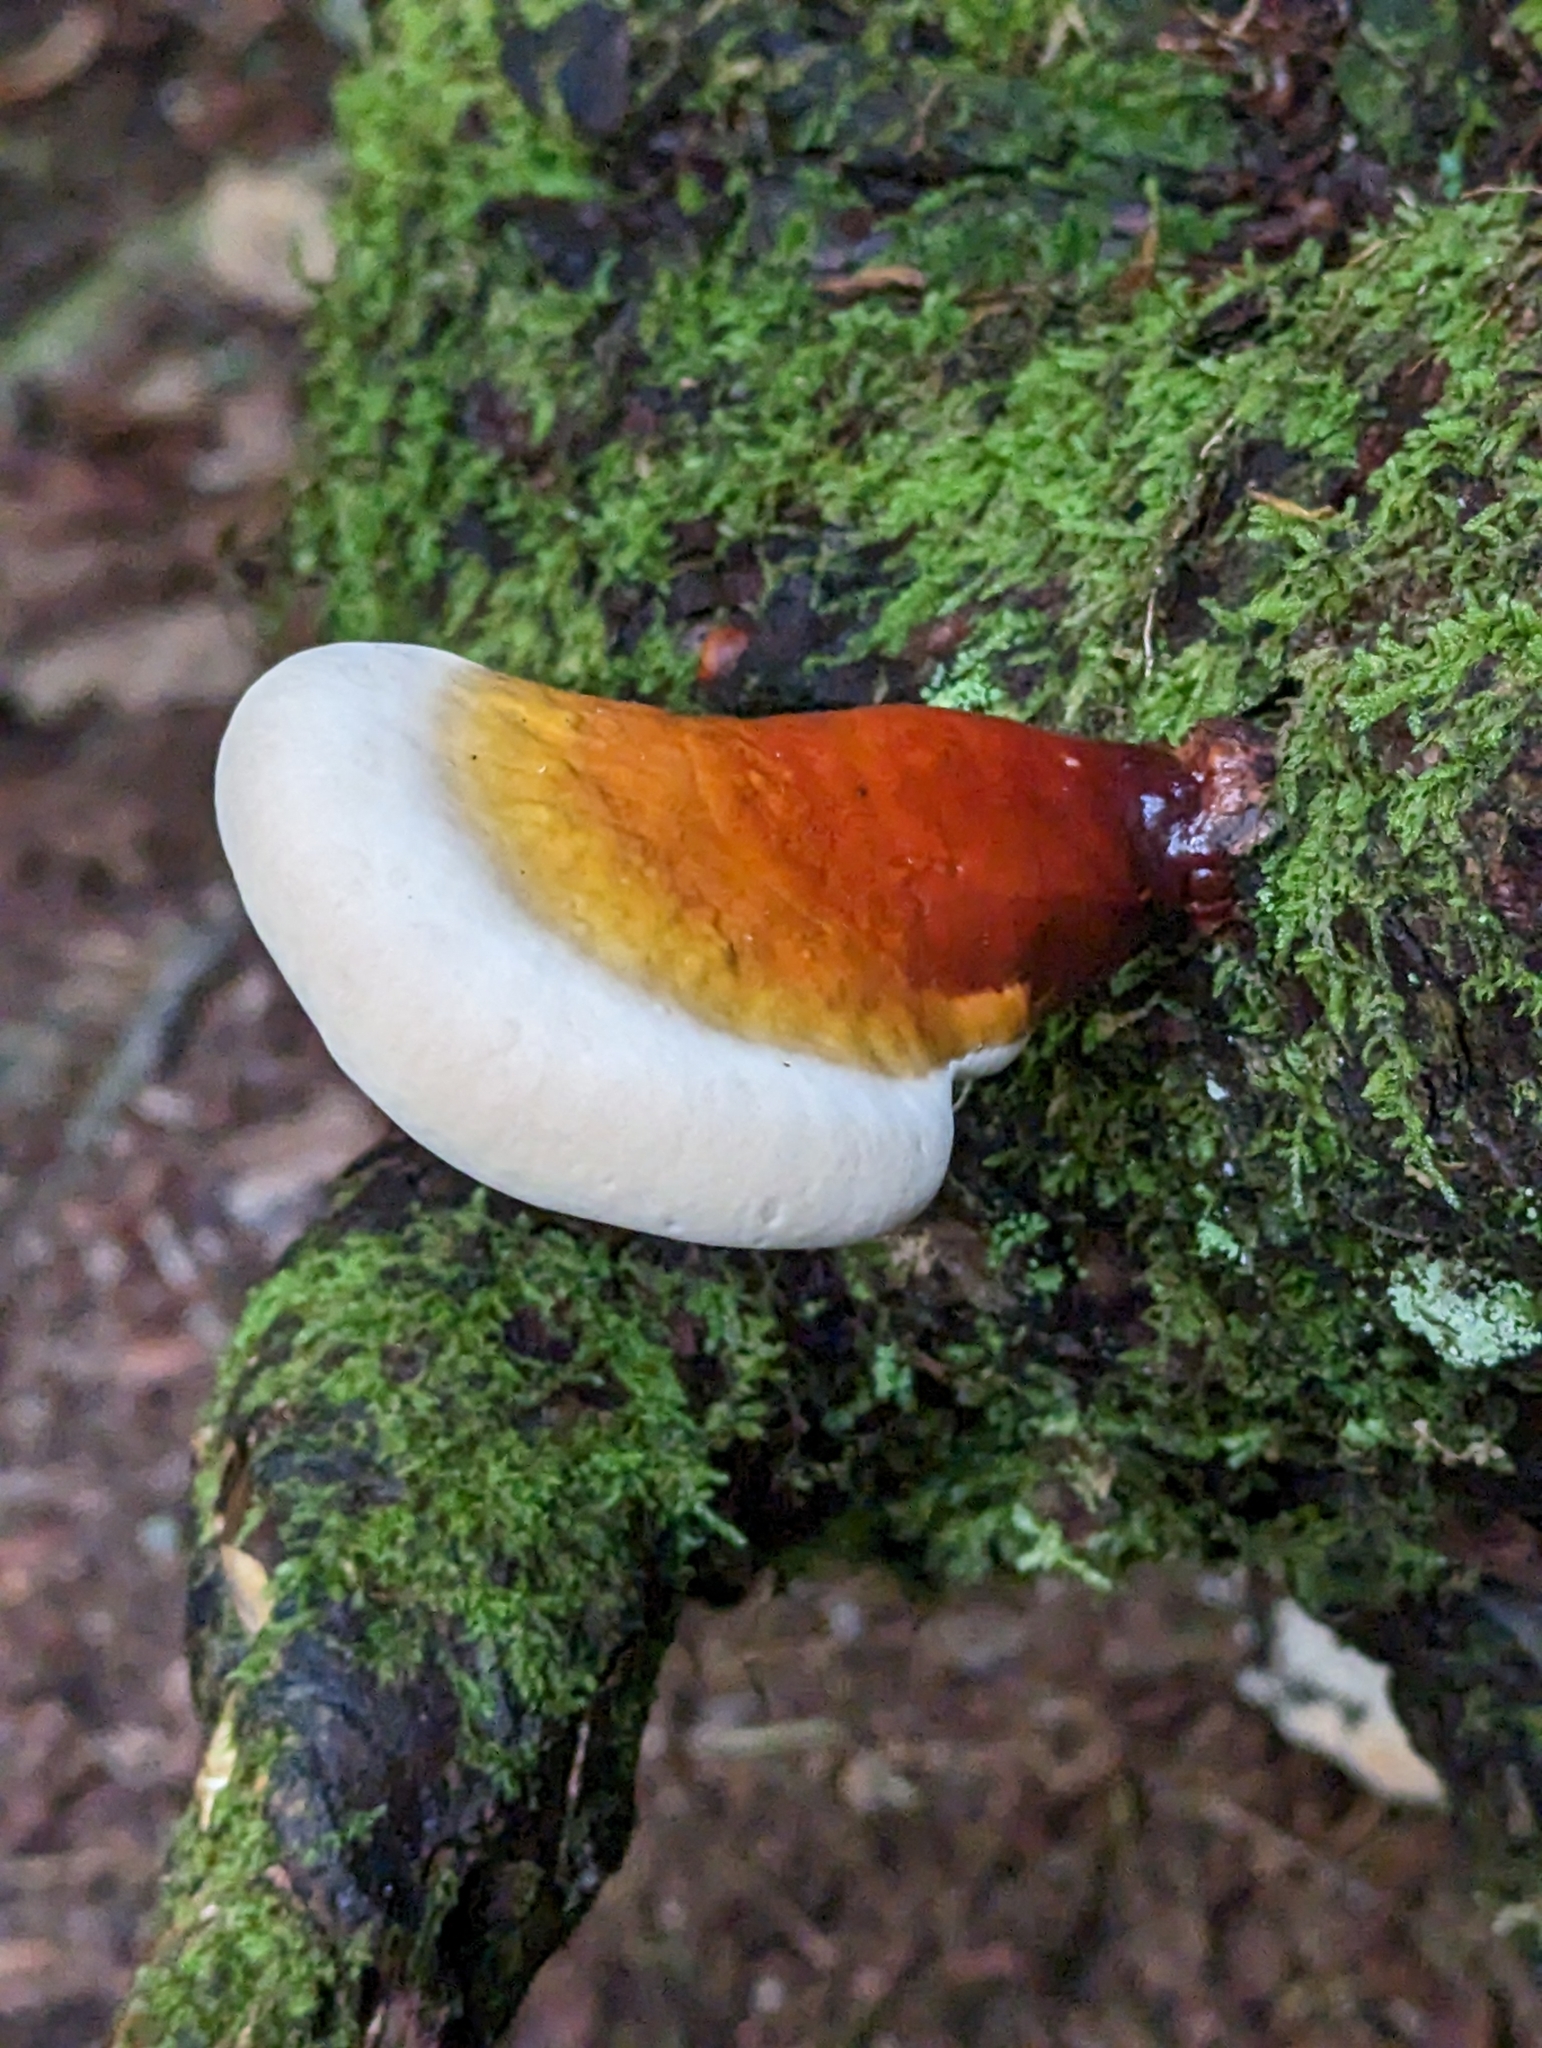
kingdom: Fungi
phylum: Basidiomycota
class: Agaricomycetes
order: Polyporales
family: Polyporaceae
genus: Ganoderma
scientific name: Ganoderma tsugae
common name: Hemlock varnish shelf
